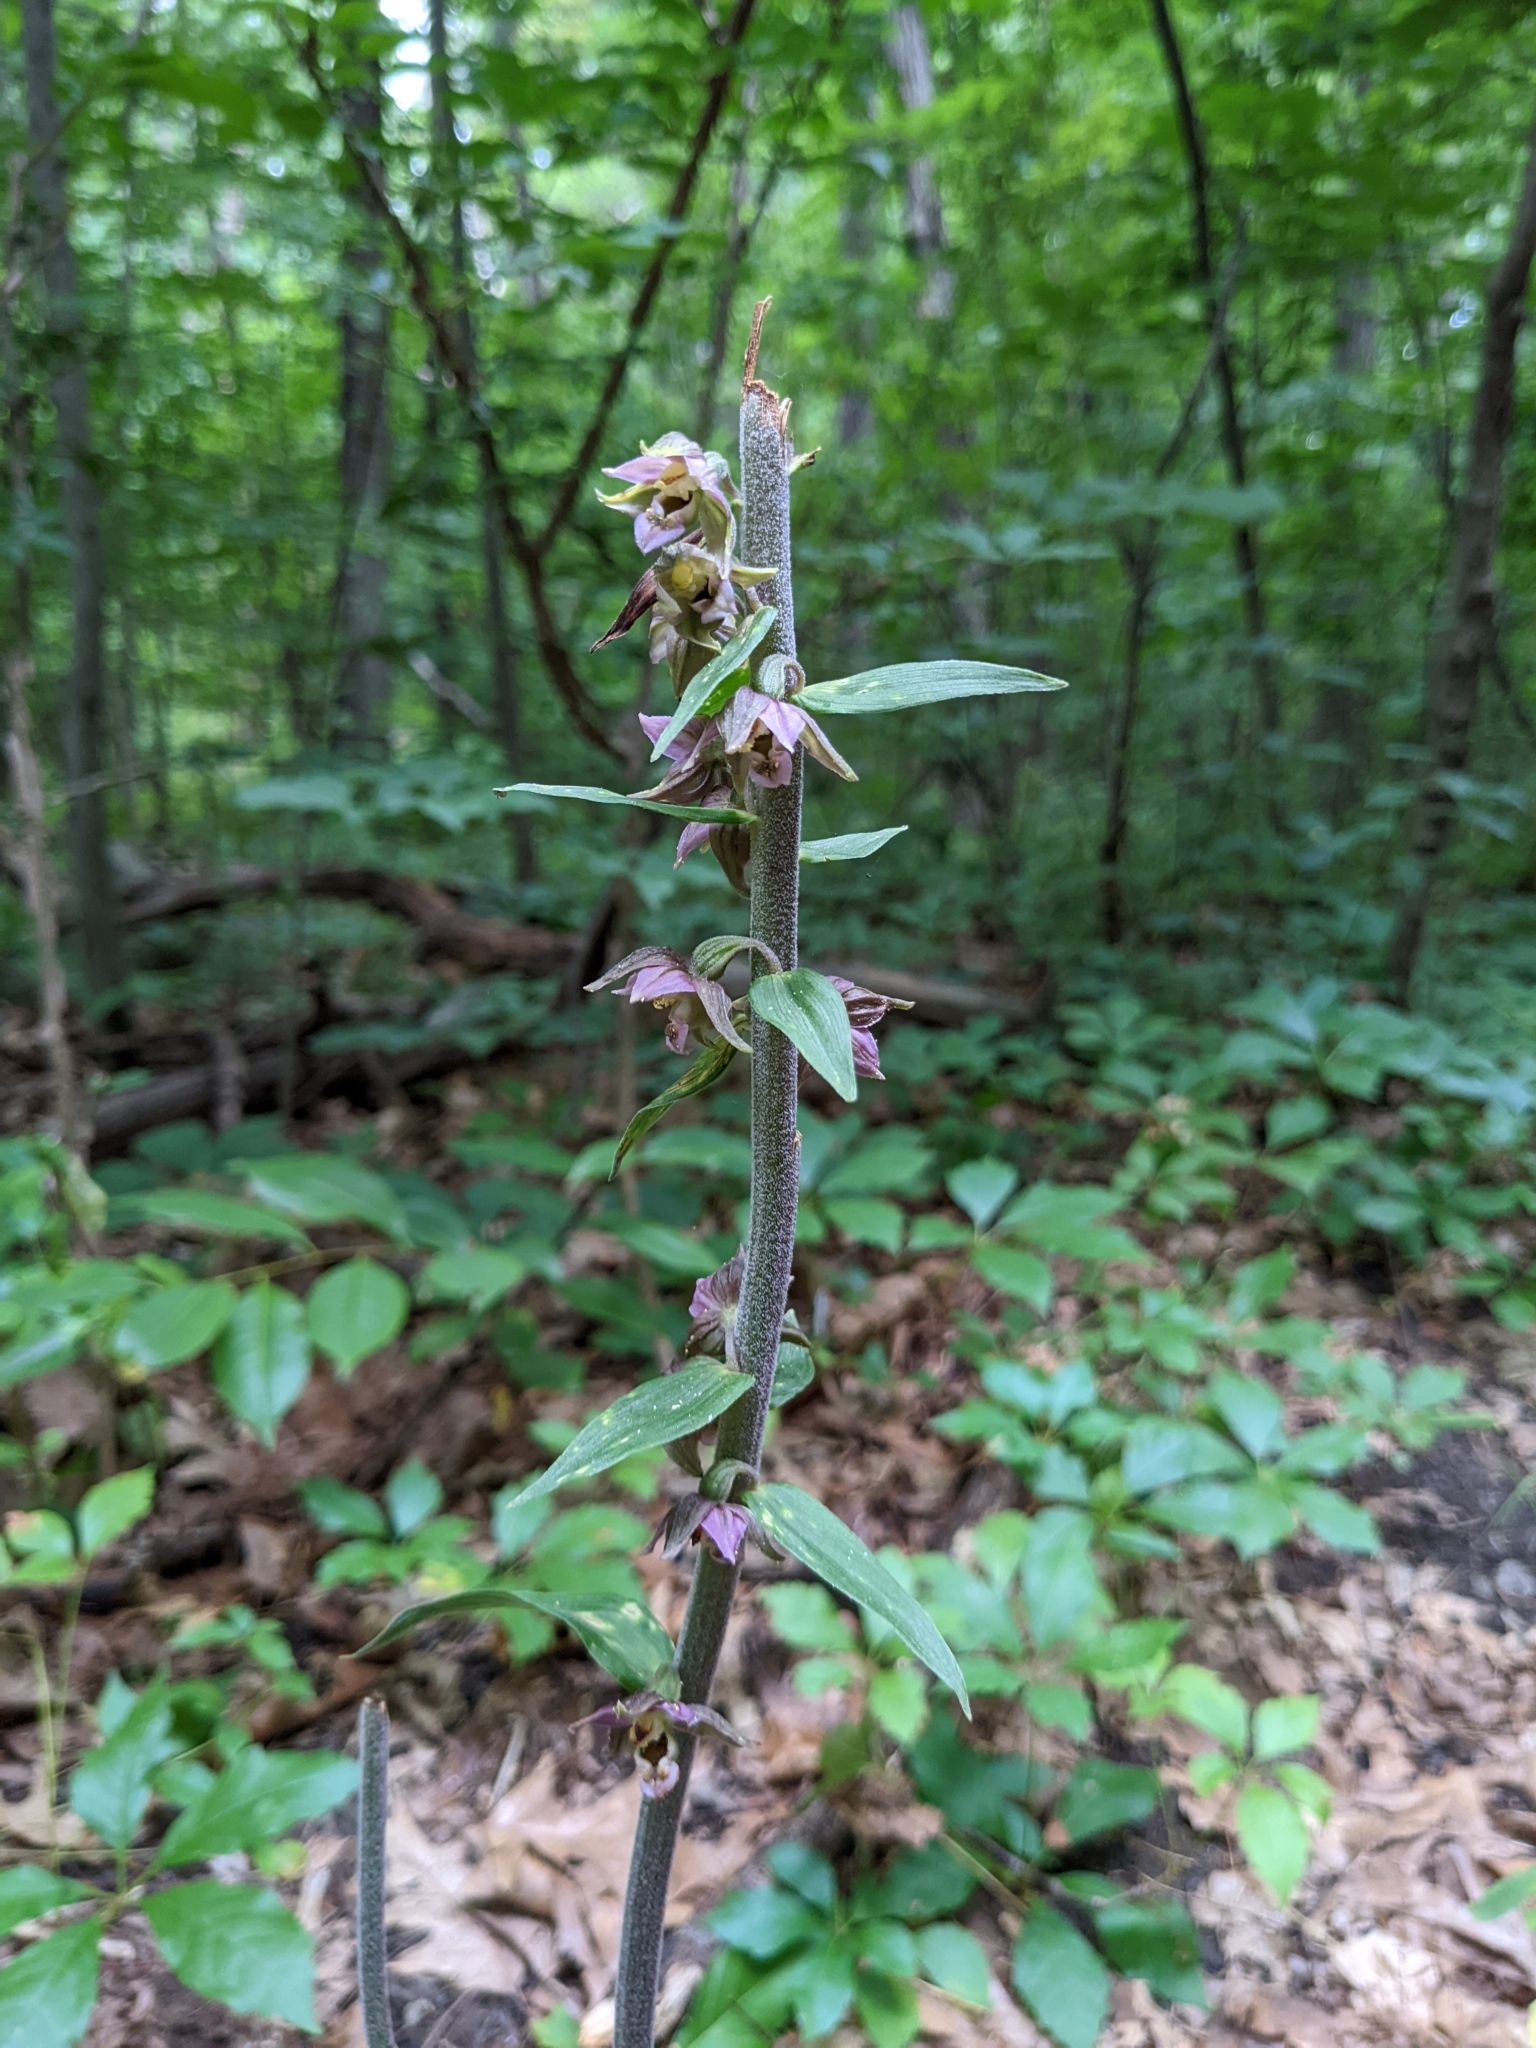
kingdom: Plantae
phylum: Tracheophyta
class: Liliopsida
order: Asparagales
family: Orchidaceae
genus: Epipactis
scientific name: Epipactis helleborine
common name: Broad-leaved helleborine
